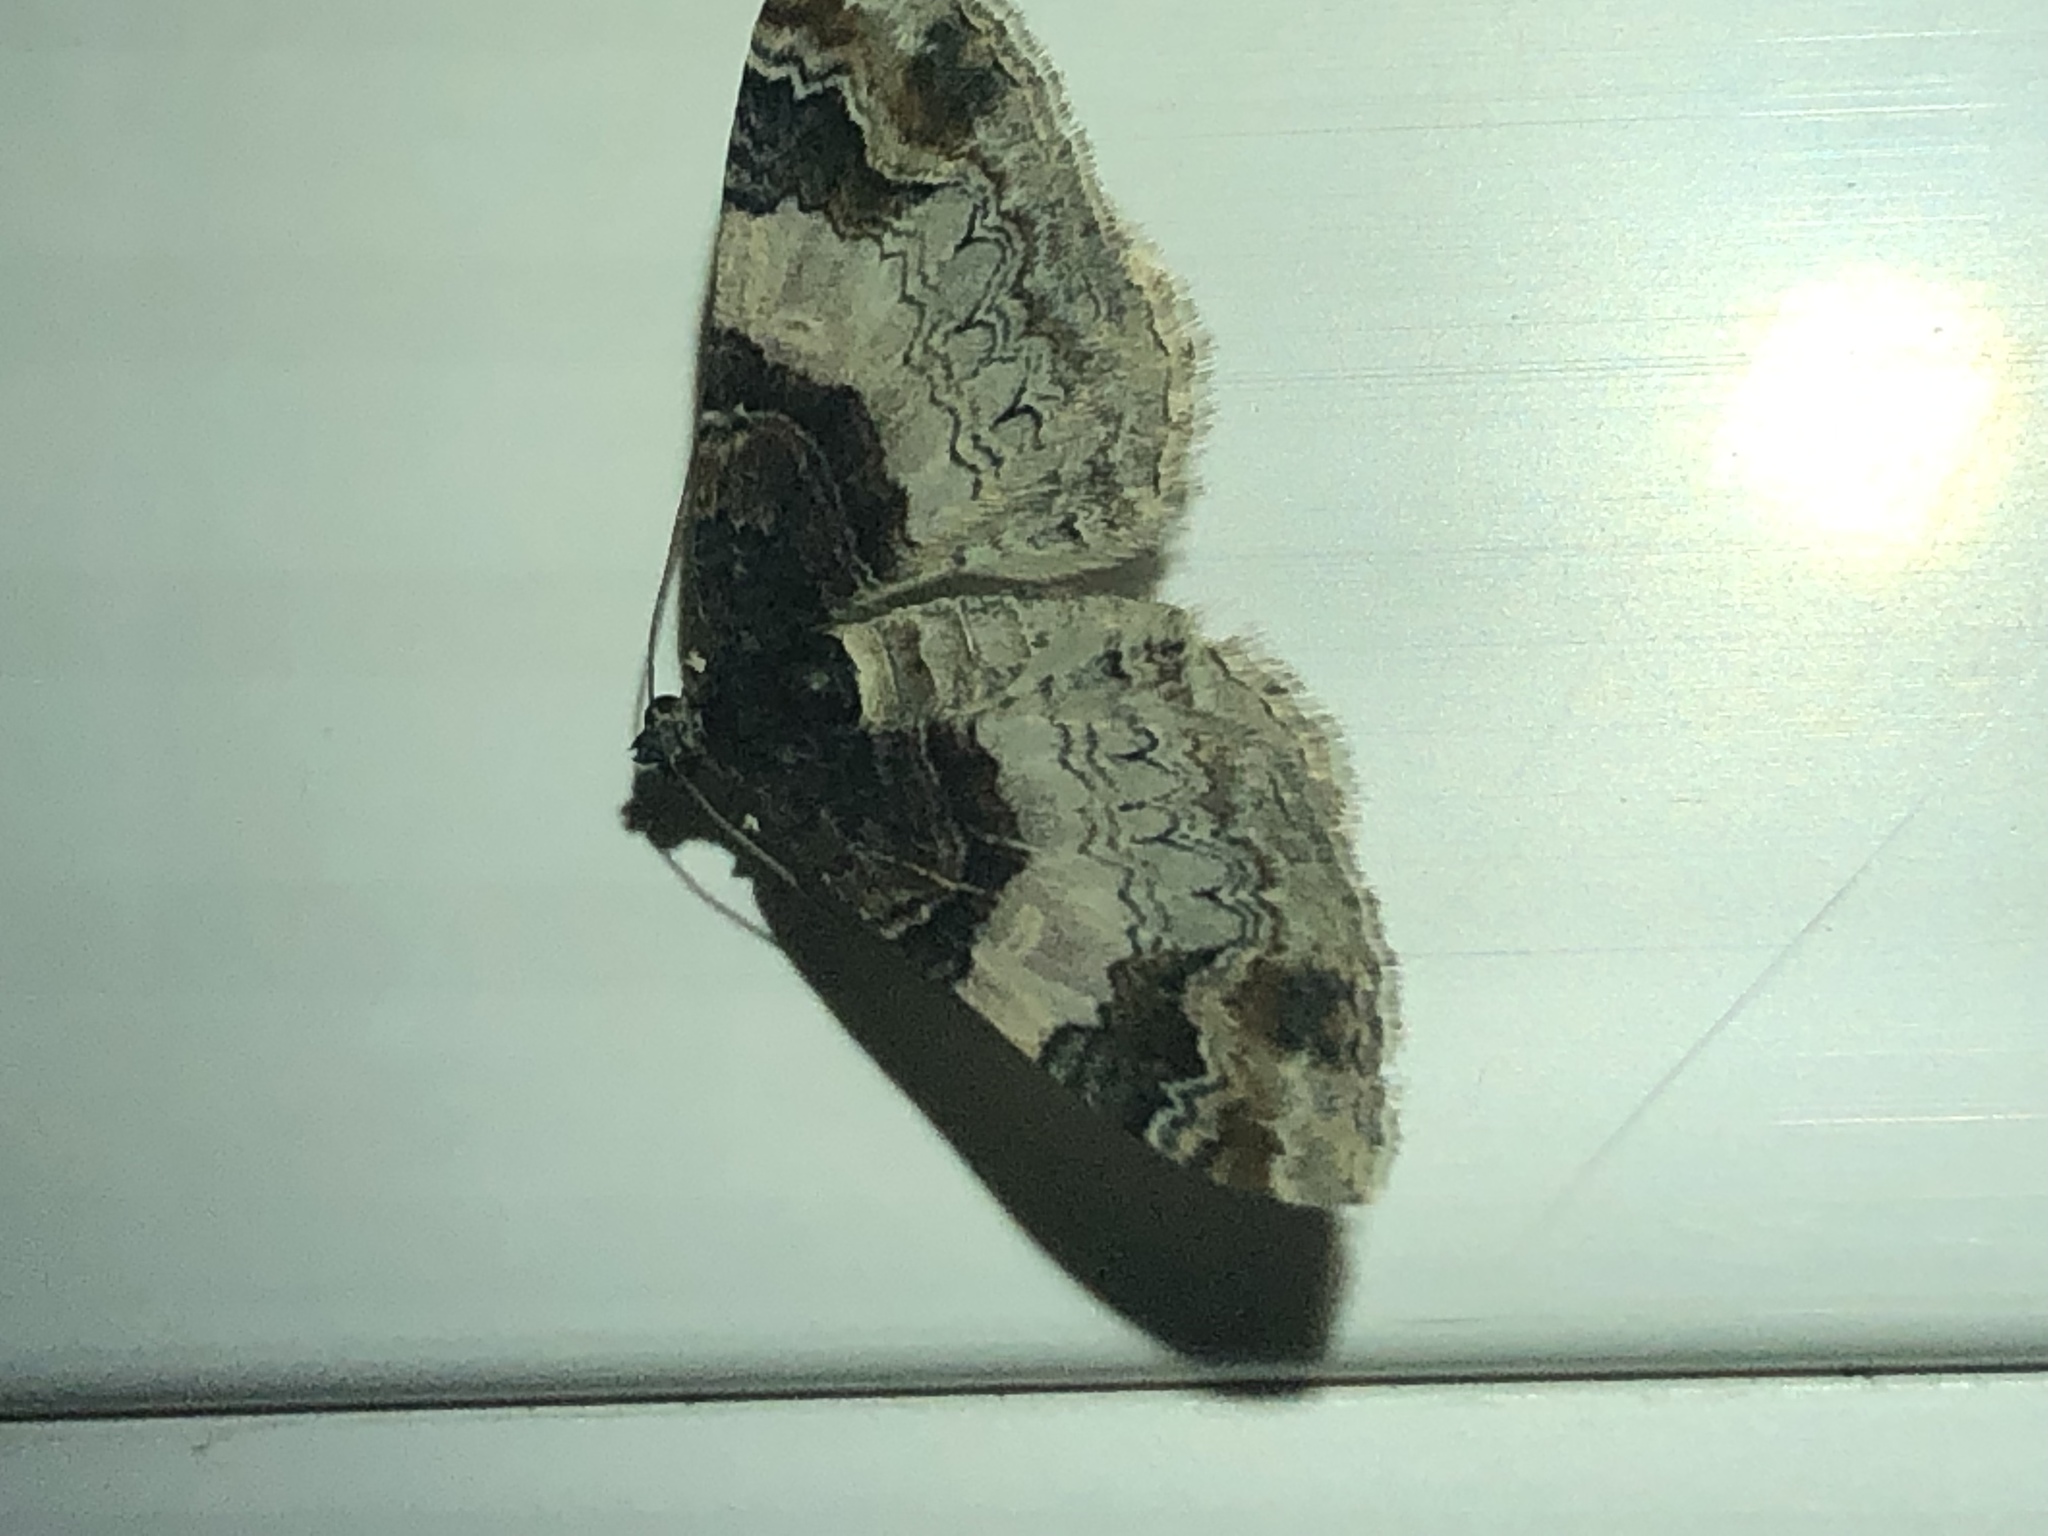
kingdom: Animalia
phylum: Arthropoda
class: Insecta
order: Lepidoptera
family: Geometridae
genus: Catarhoe
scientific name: Catarhoe cuculata
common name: Royal mantle
